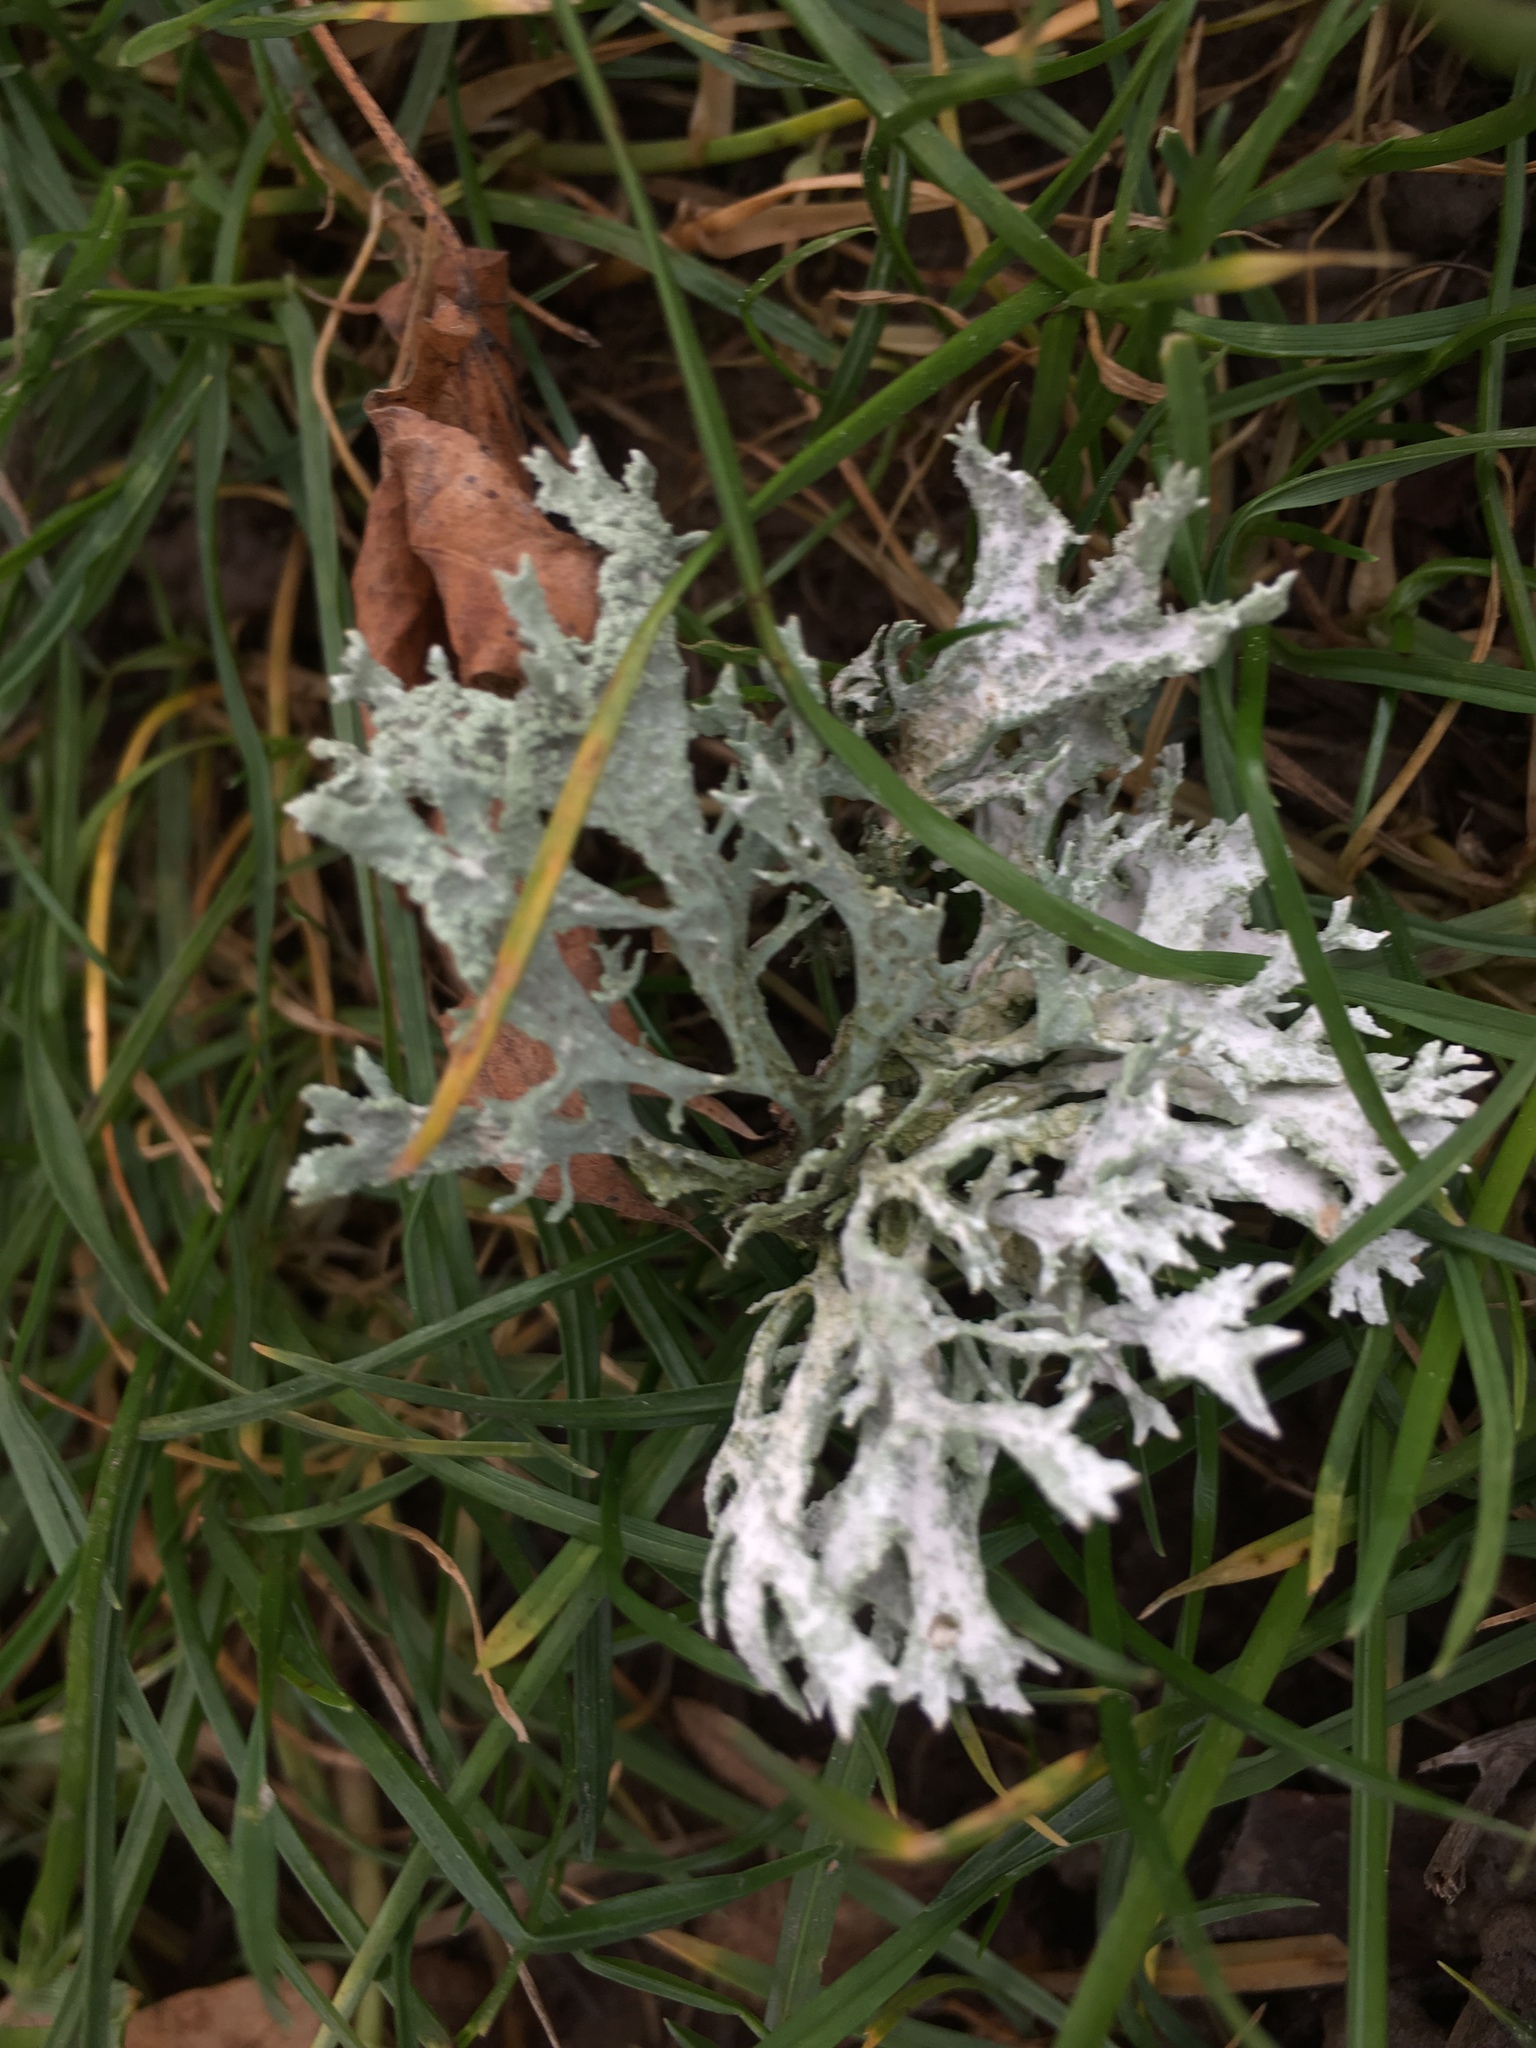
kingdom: Fungi
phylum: Ascomycota
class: Lecanoromycetes
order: Lecanorales
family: Parmeliaceae
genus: Evernia
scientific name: Evernia prunastri
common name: Oak moss
